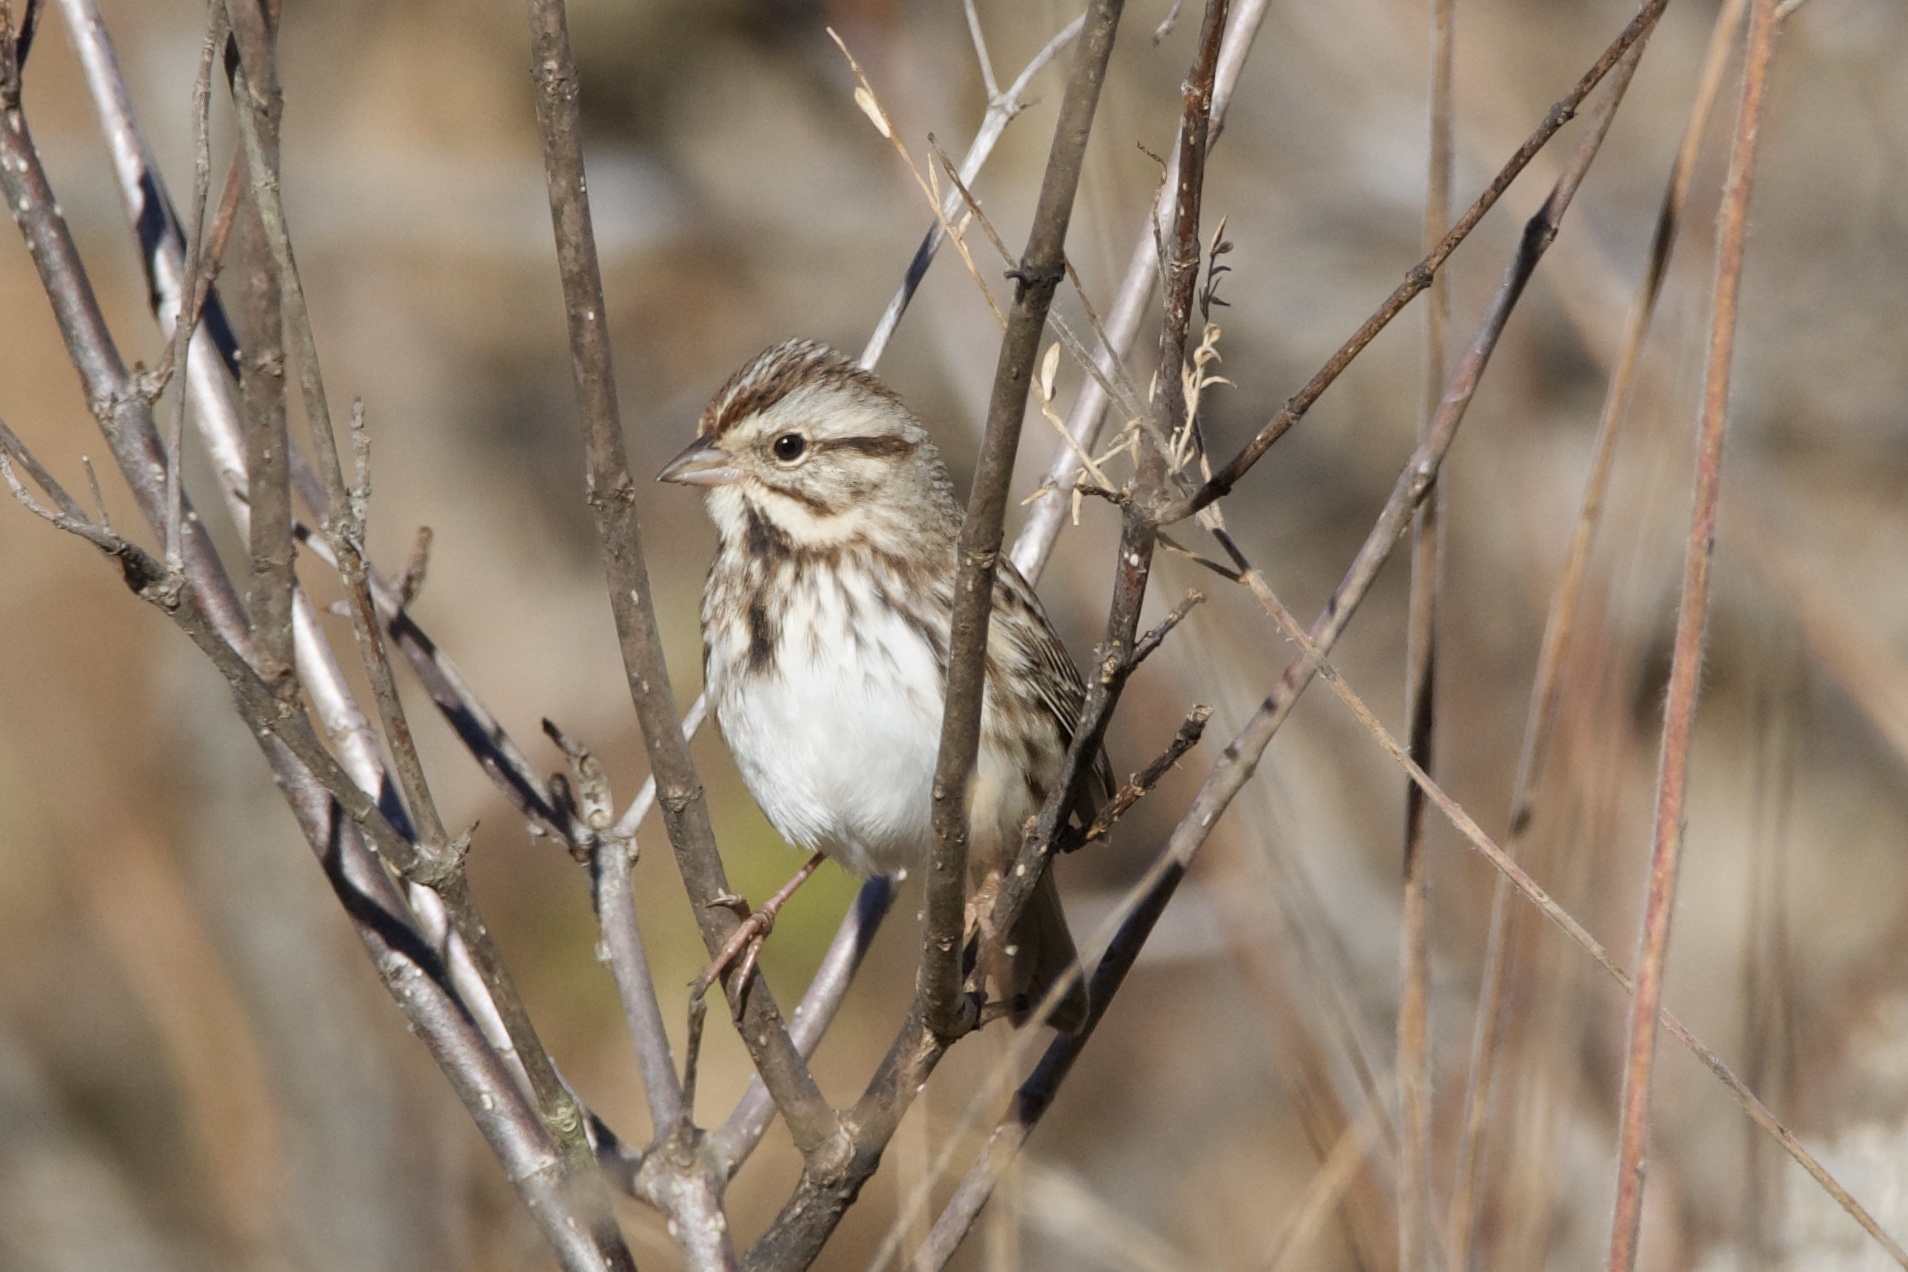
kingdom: Animalia
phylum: Chordata
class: Aves
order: Passeriformes
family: Passerellidae
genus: Melospiza
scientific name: Melospiza melodia
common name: Song sparrow
